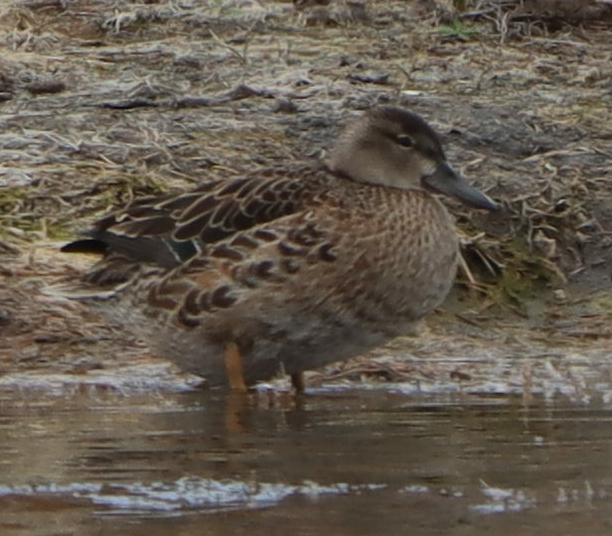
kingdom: Animalia
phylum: Chordata
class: Aves
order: Anseriformes
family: Anatidae
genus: Spatula
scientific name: Spatula discors
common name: Blue-winged teal
